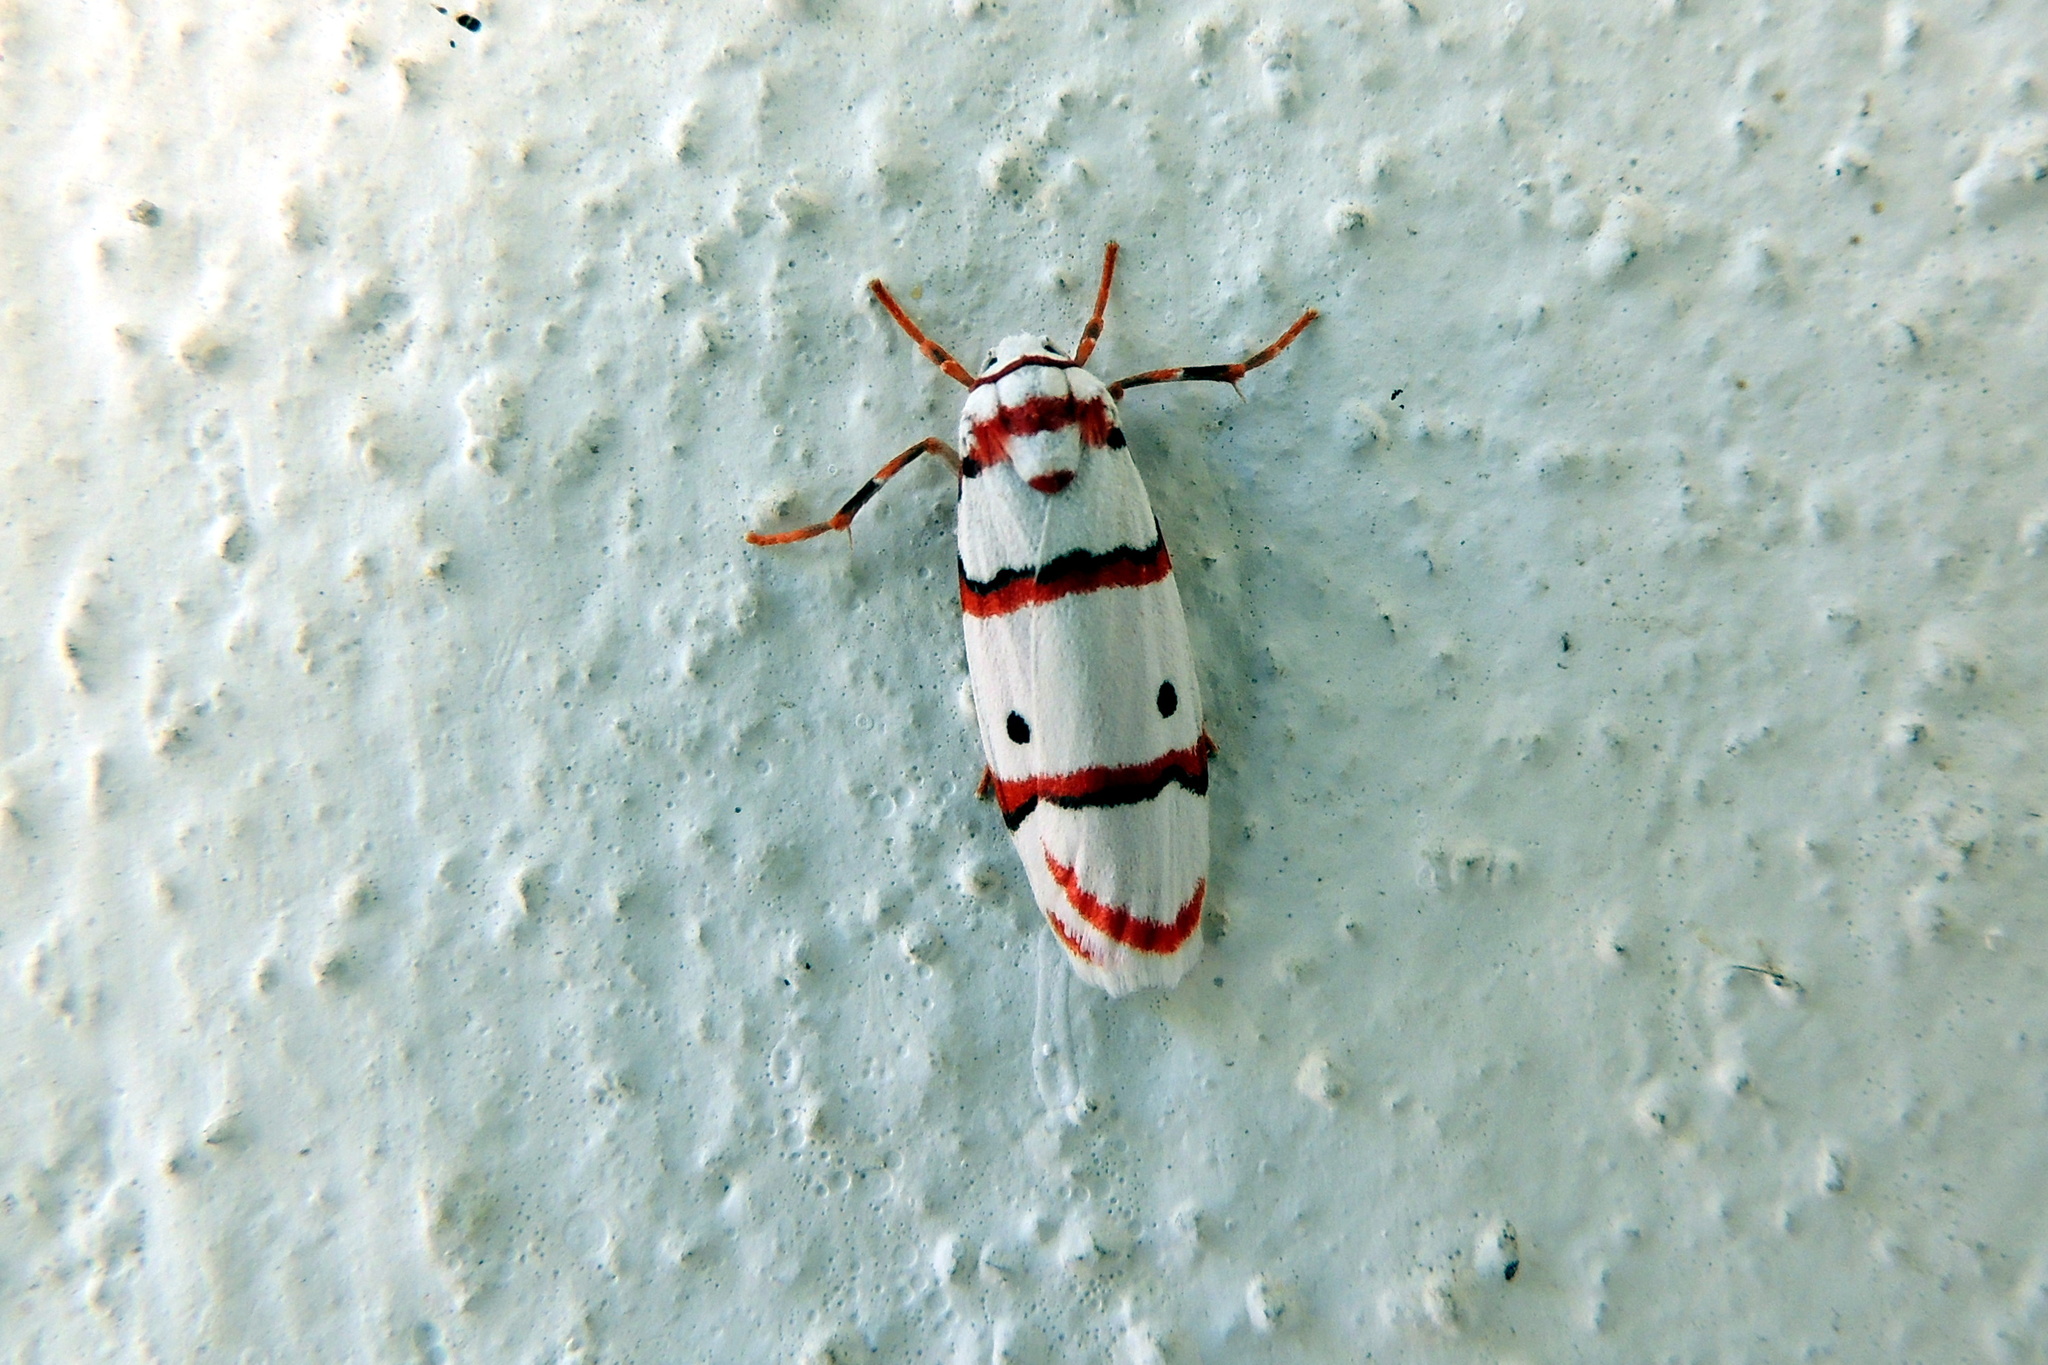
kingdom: Animalia
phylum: Arthropoda
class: Insecta
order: Lepidoptera
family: Erebidae
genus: Cyana
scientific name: Cyana peregrina
